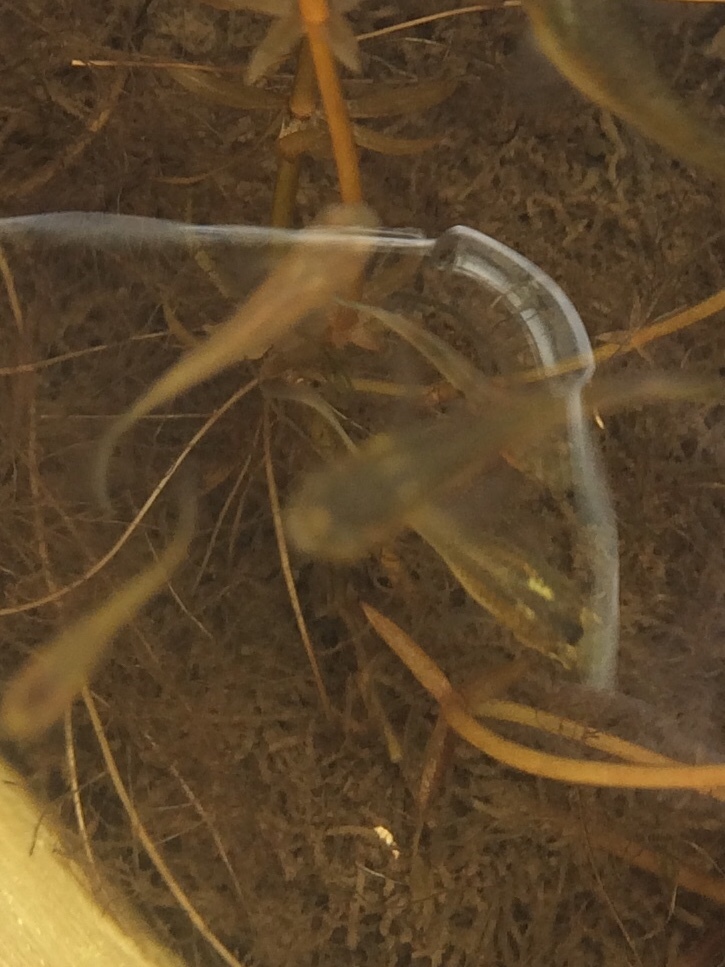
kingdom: Animalia
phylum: Chordata
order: Cyprinodontiformes
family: Poeciliidae
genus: Poecilia
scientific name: Poecilia reticulata
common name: Guppy
